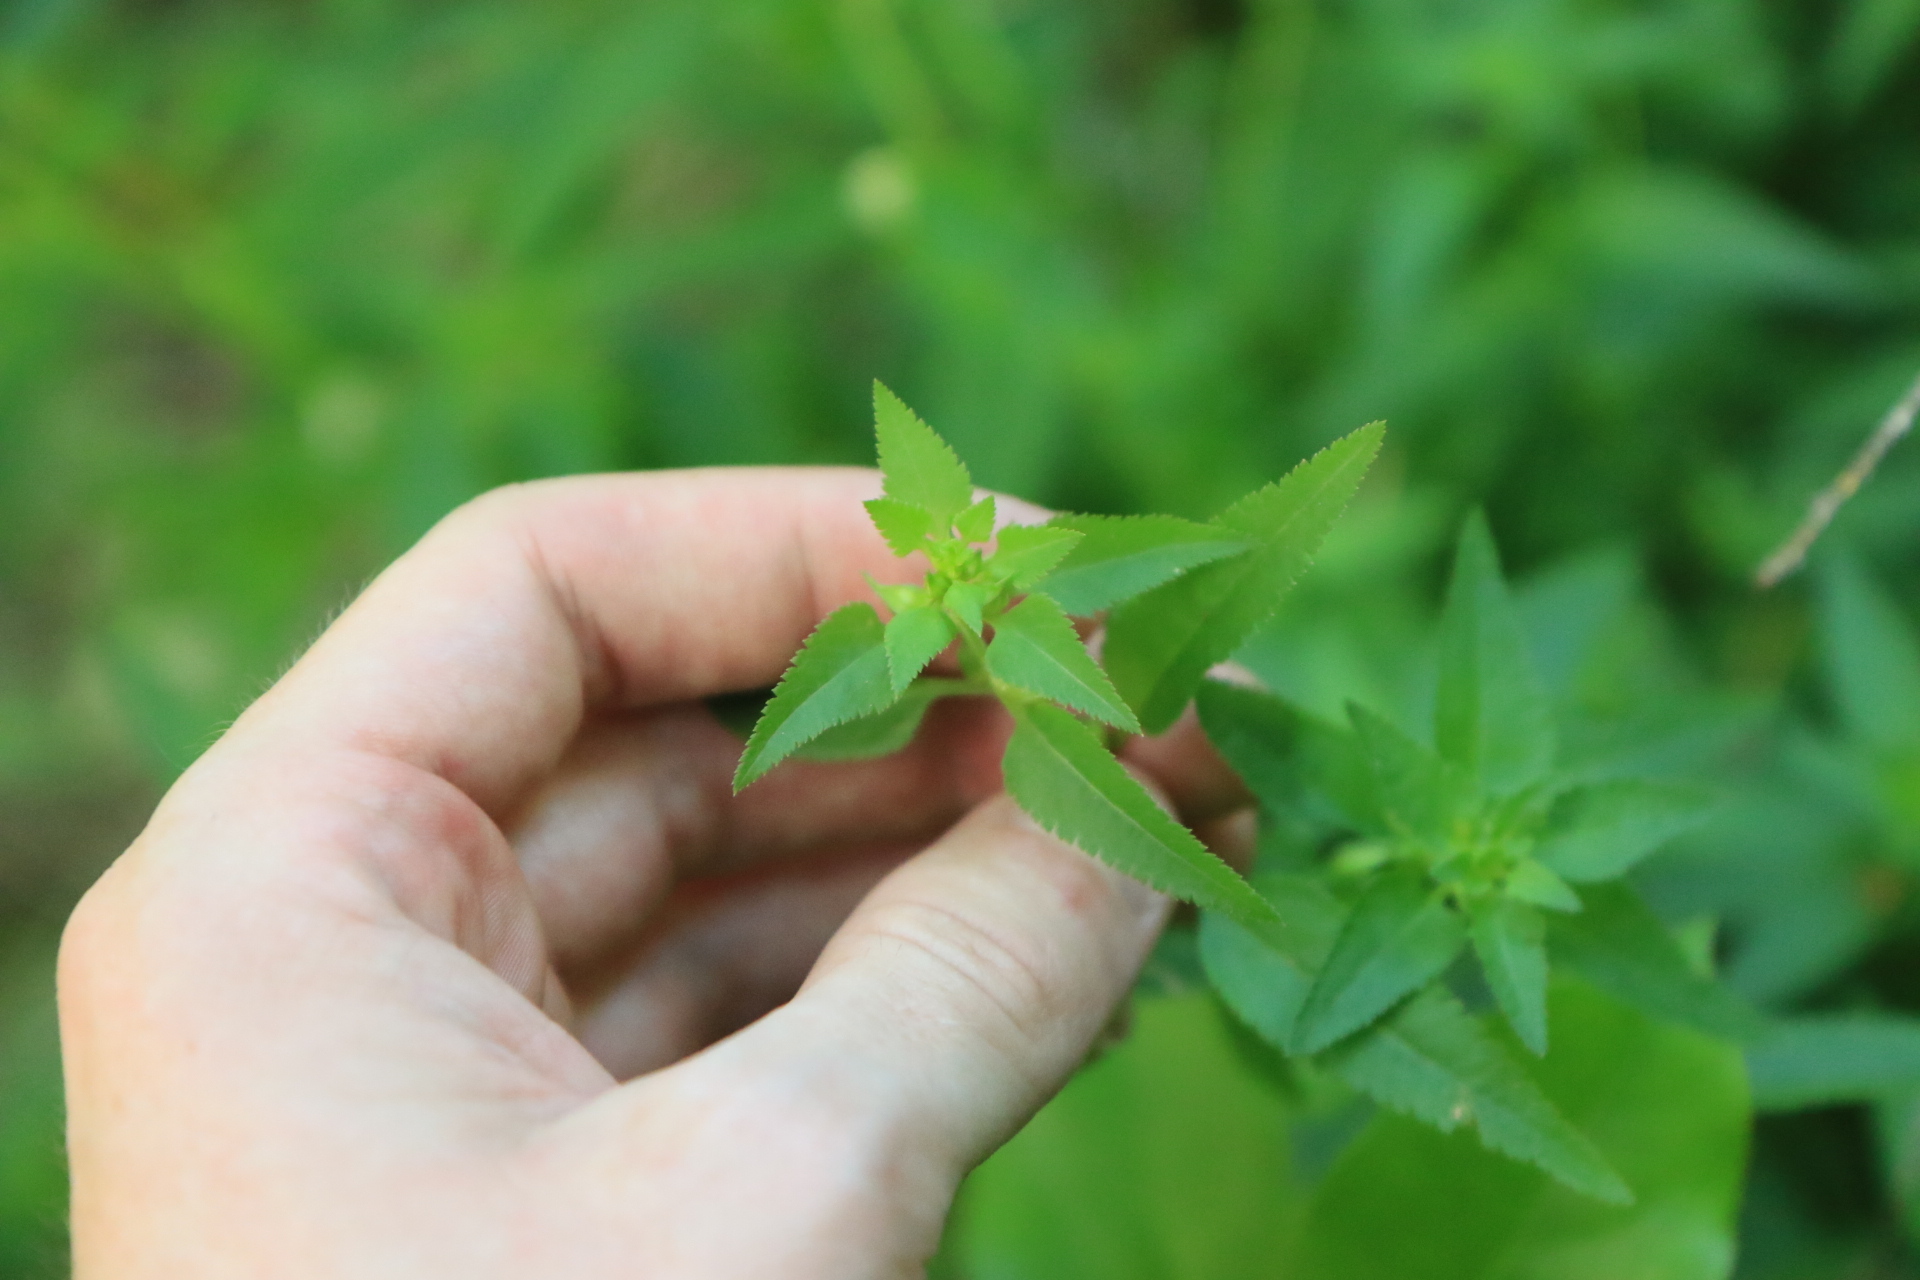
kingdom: Plantae
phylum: Tracheophyta
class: Magnoliopsida
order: Lamiales
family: Orobanchaceae
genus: Pedicularis
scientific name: Pedicularis racemosa
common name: Leafy lousewort
